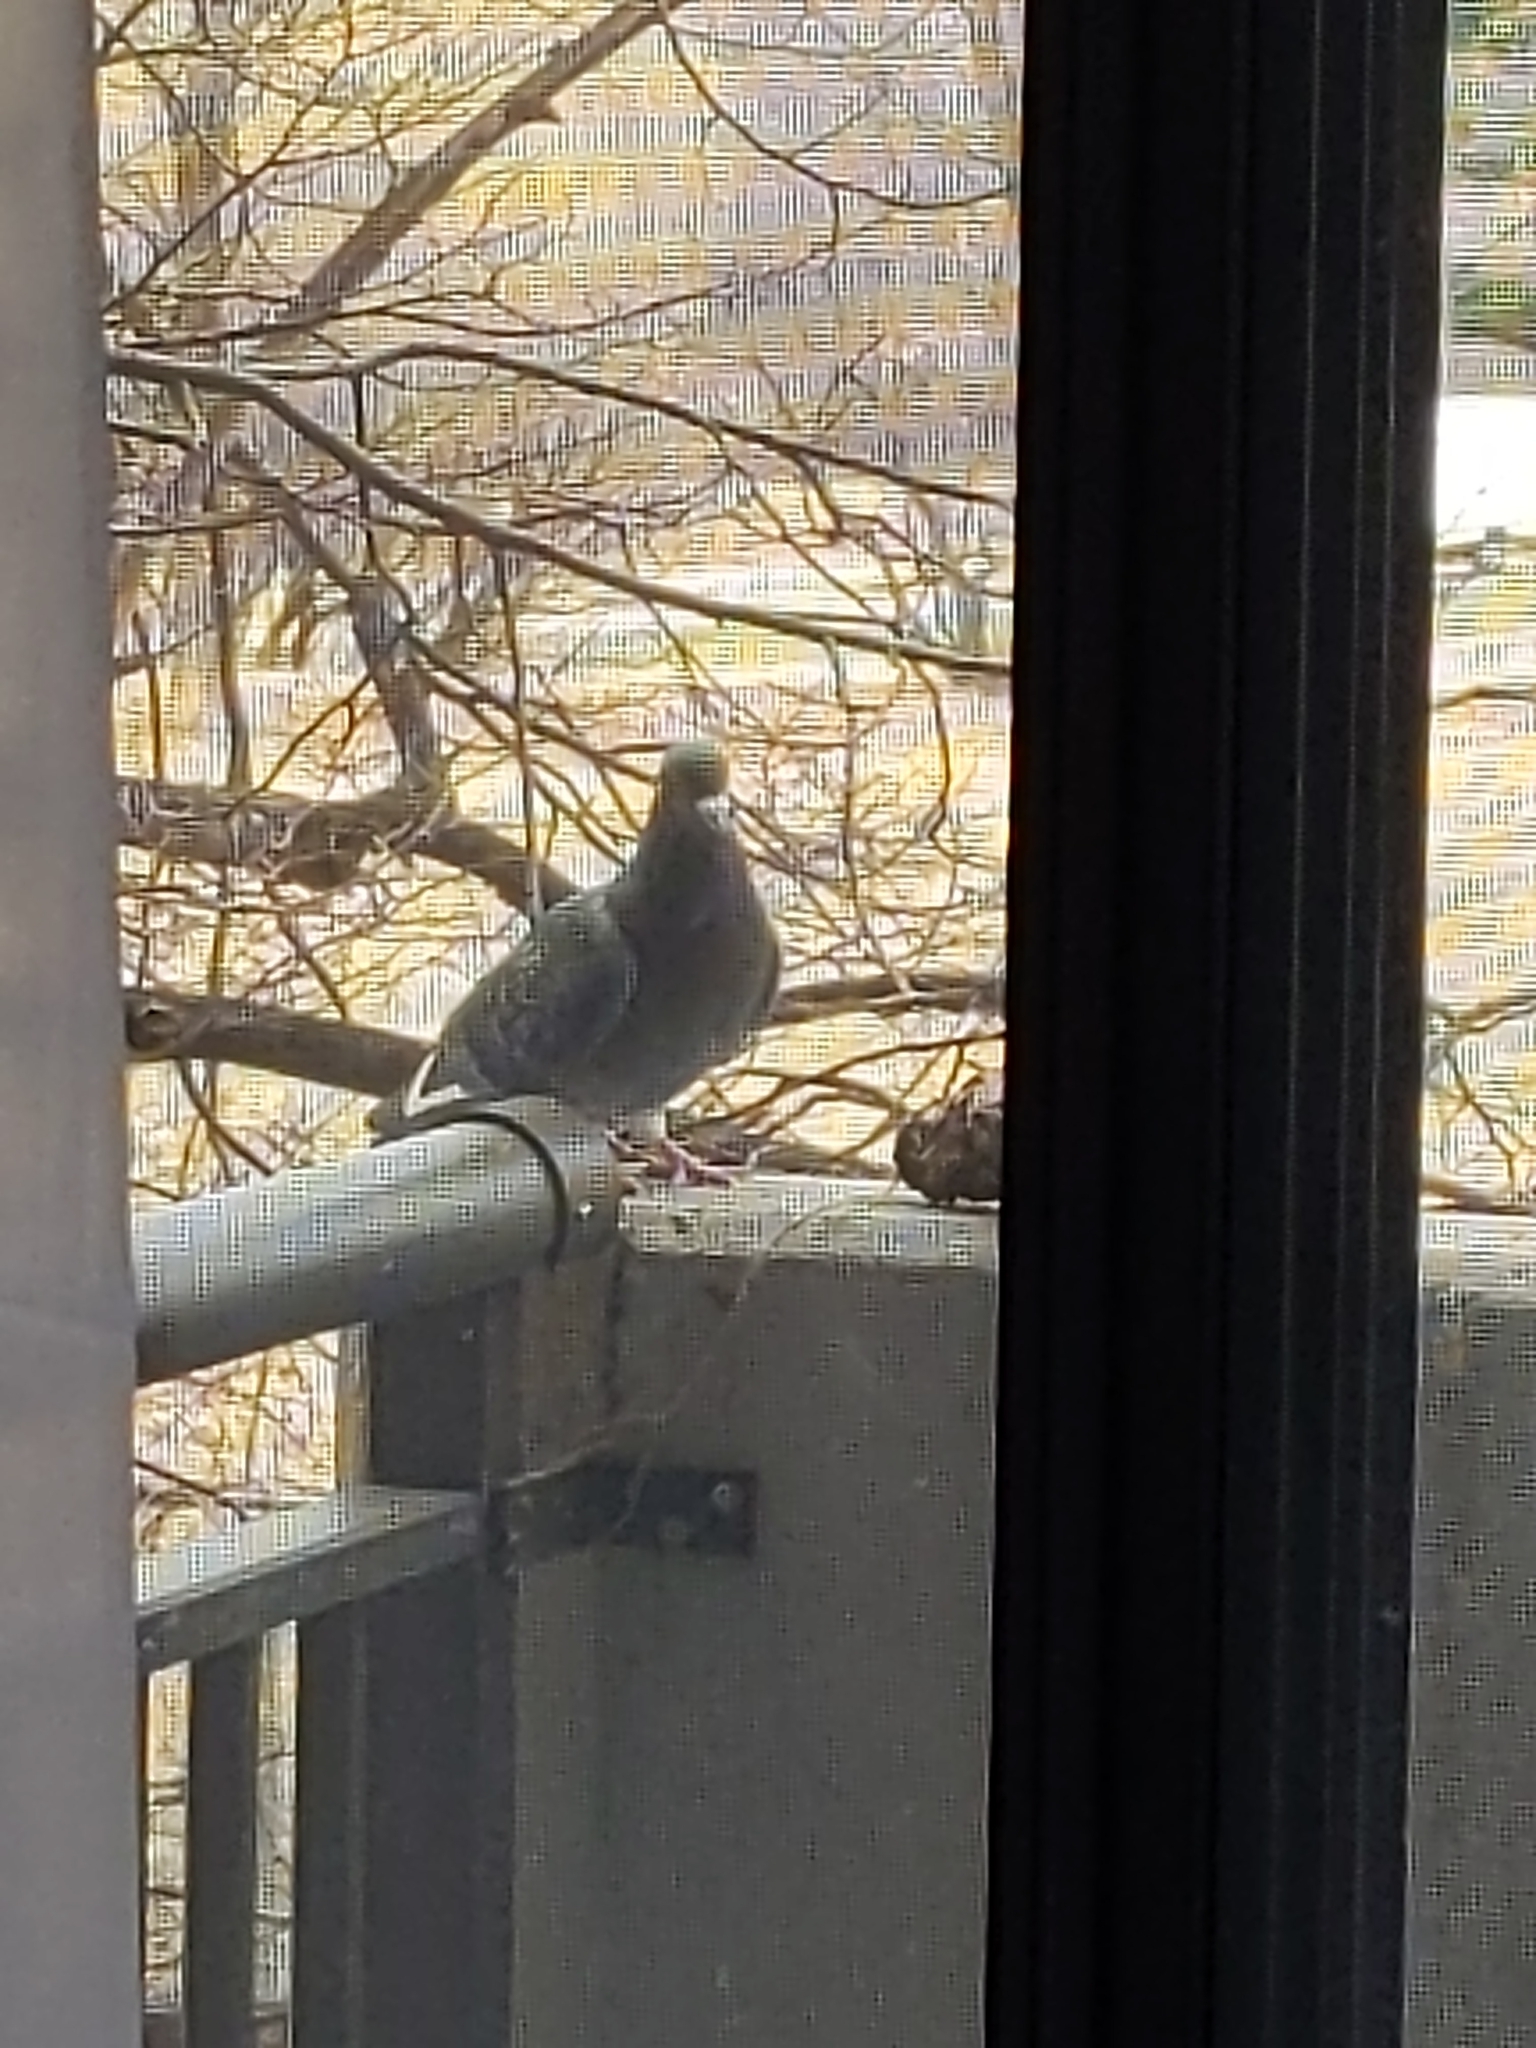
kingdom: Animalia
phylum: Chordata
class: Aves
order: Columbiformes
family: Columbidae
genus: Columba
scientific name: Columba livia
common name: Rock pigeon
